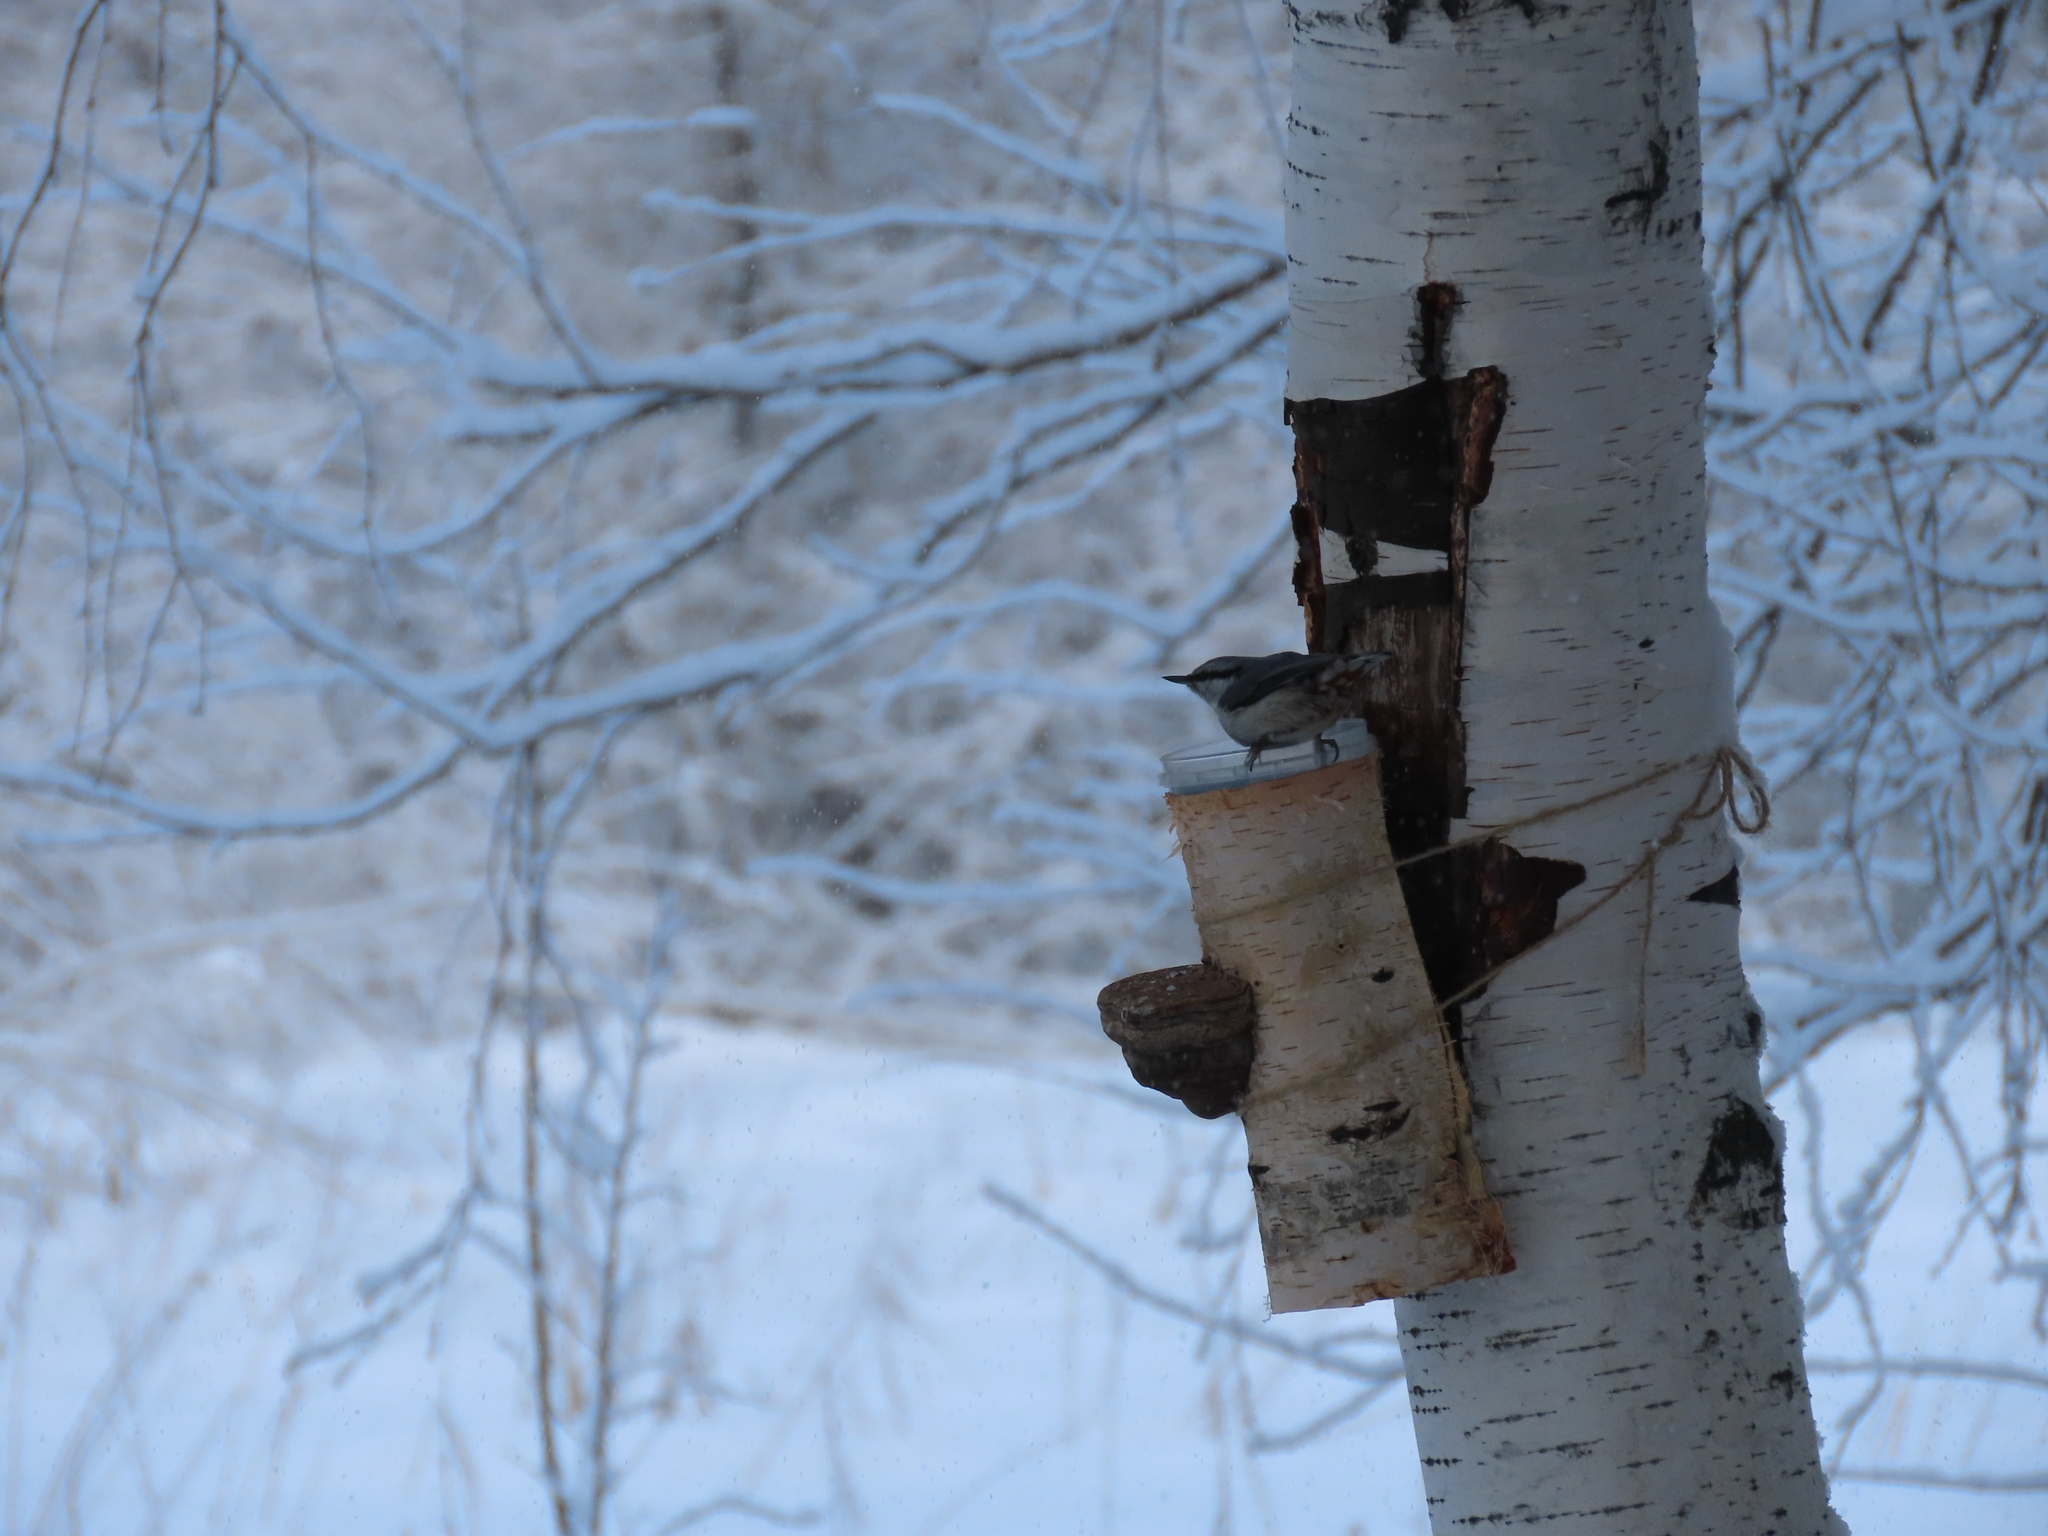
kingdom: Animalia
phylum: Chordata
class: Aves
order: Passeriformes
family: Sittidae
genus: Sitta
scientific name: Sitta europaea
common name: Eurasian nuthatch
